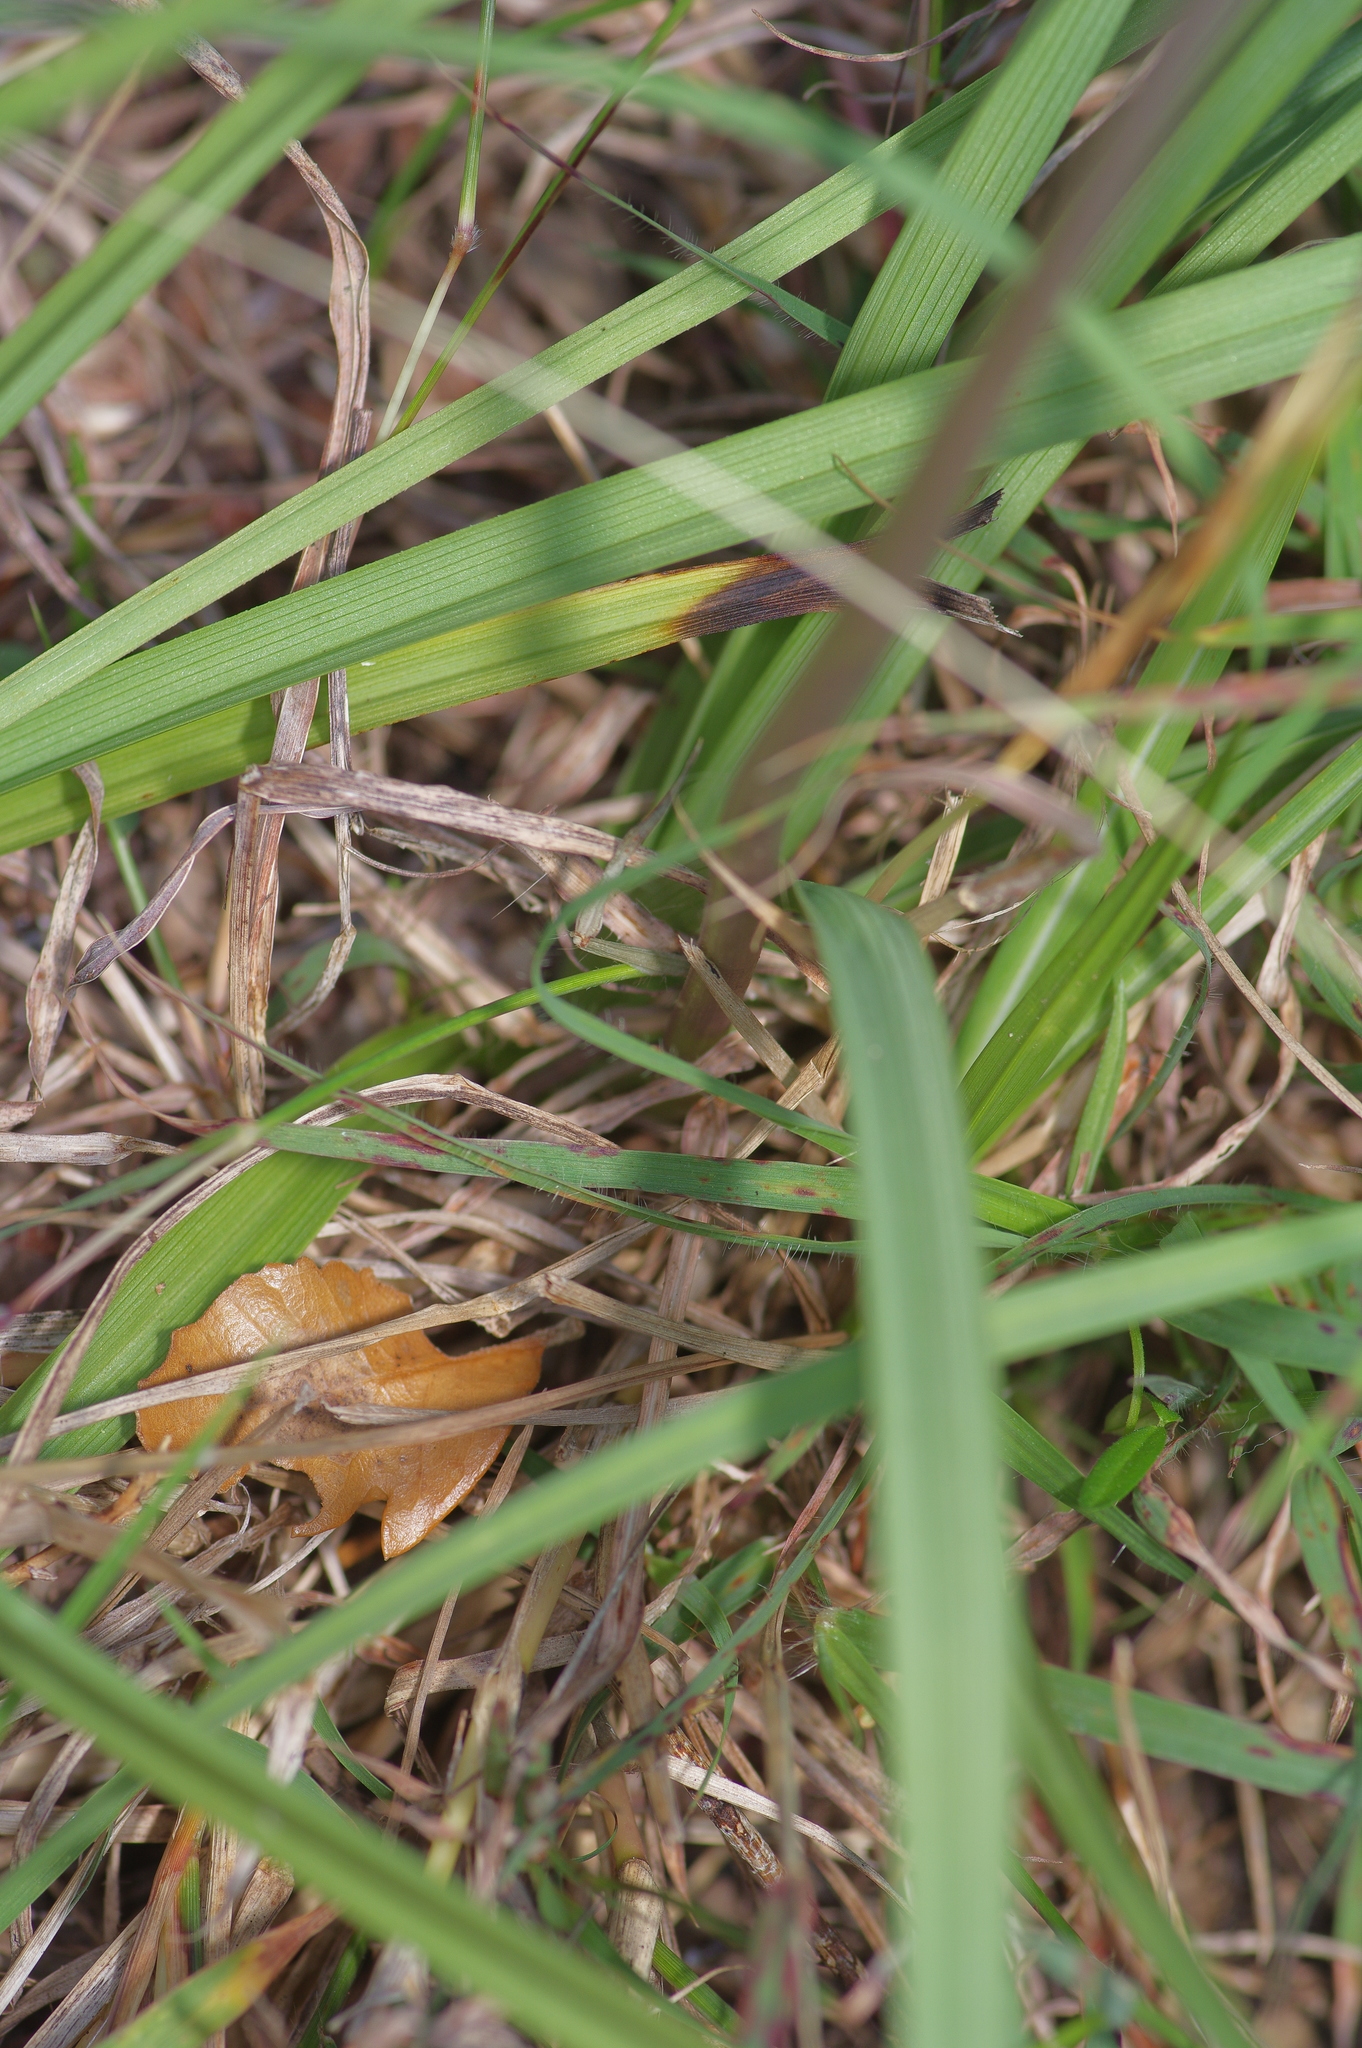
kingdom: Plantae
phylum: Tracheophyta
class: Liliopsida
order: Liliales
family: Melanthiaceae
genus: Schoenocaulon
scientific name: Schoenocaulon ghiesbreghtii
